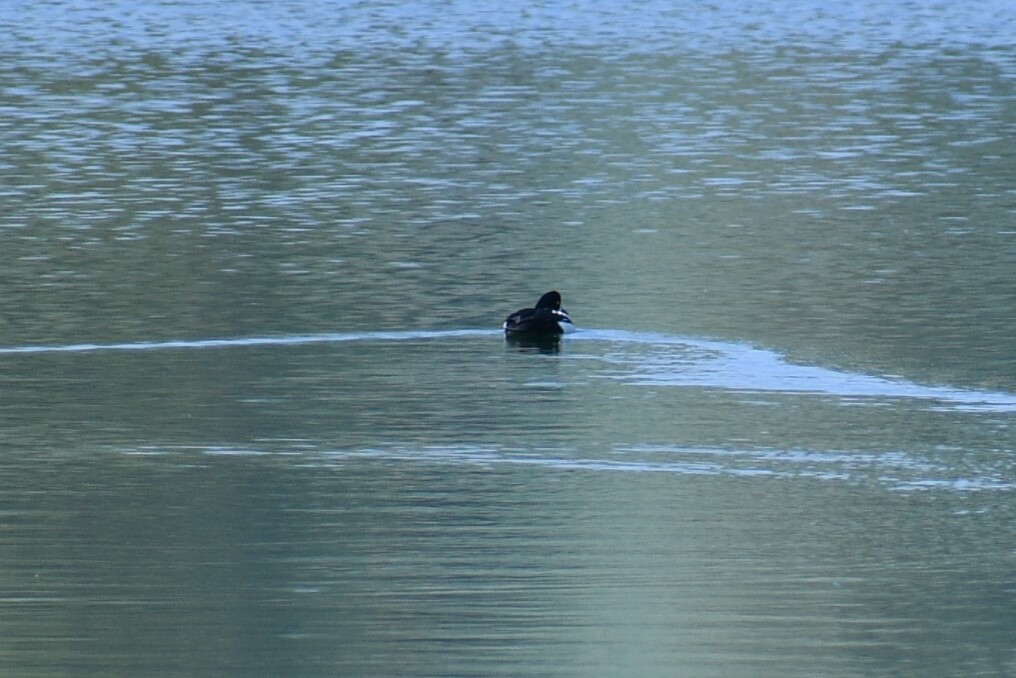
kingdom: Animalia
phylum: Chordata
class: Aves
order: Anseriformes
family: Anatidae
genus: Bucephala
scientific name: Bucephala islandica
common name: Barrow's goldeneye
